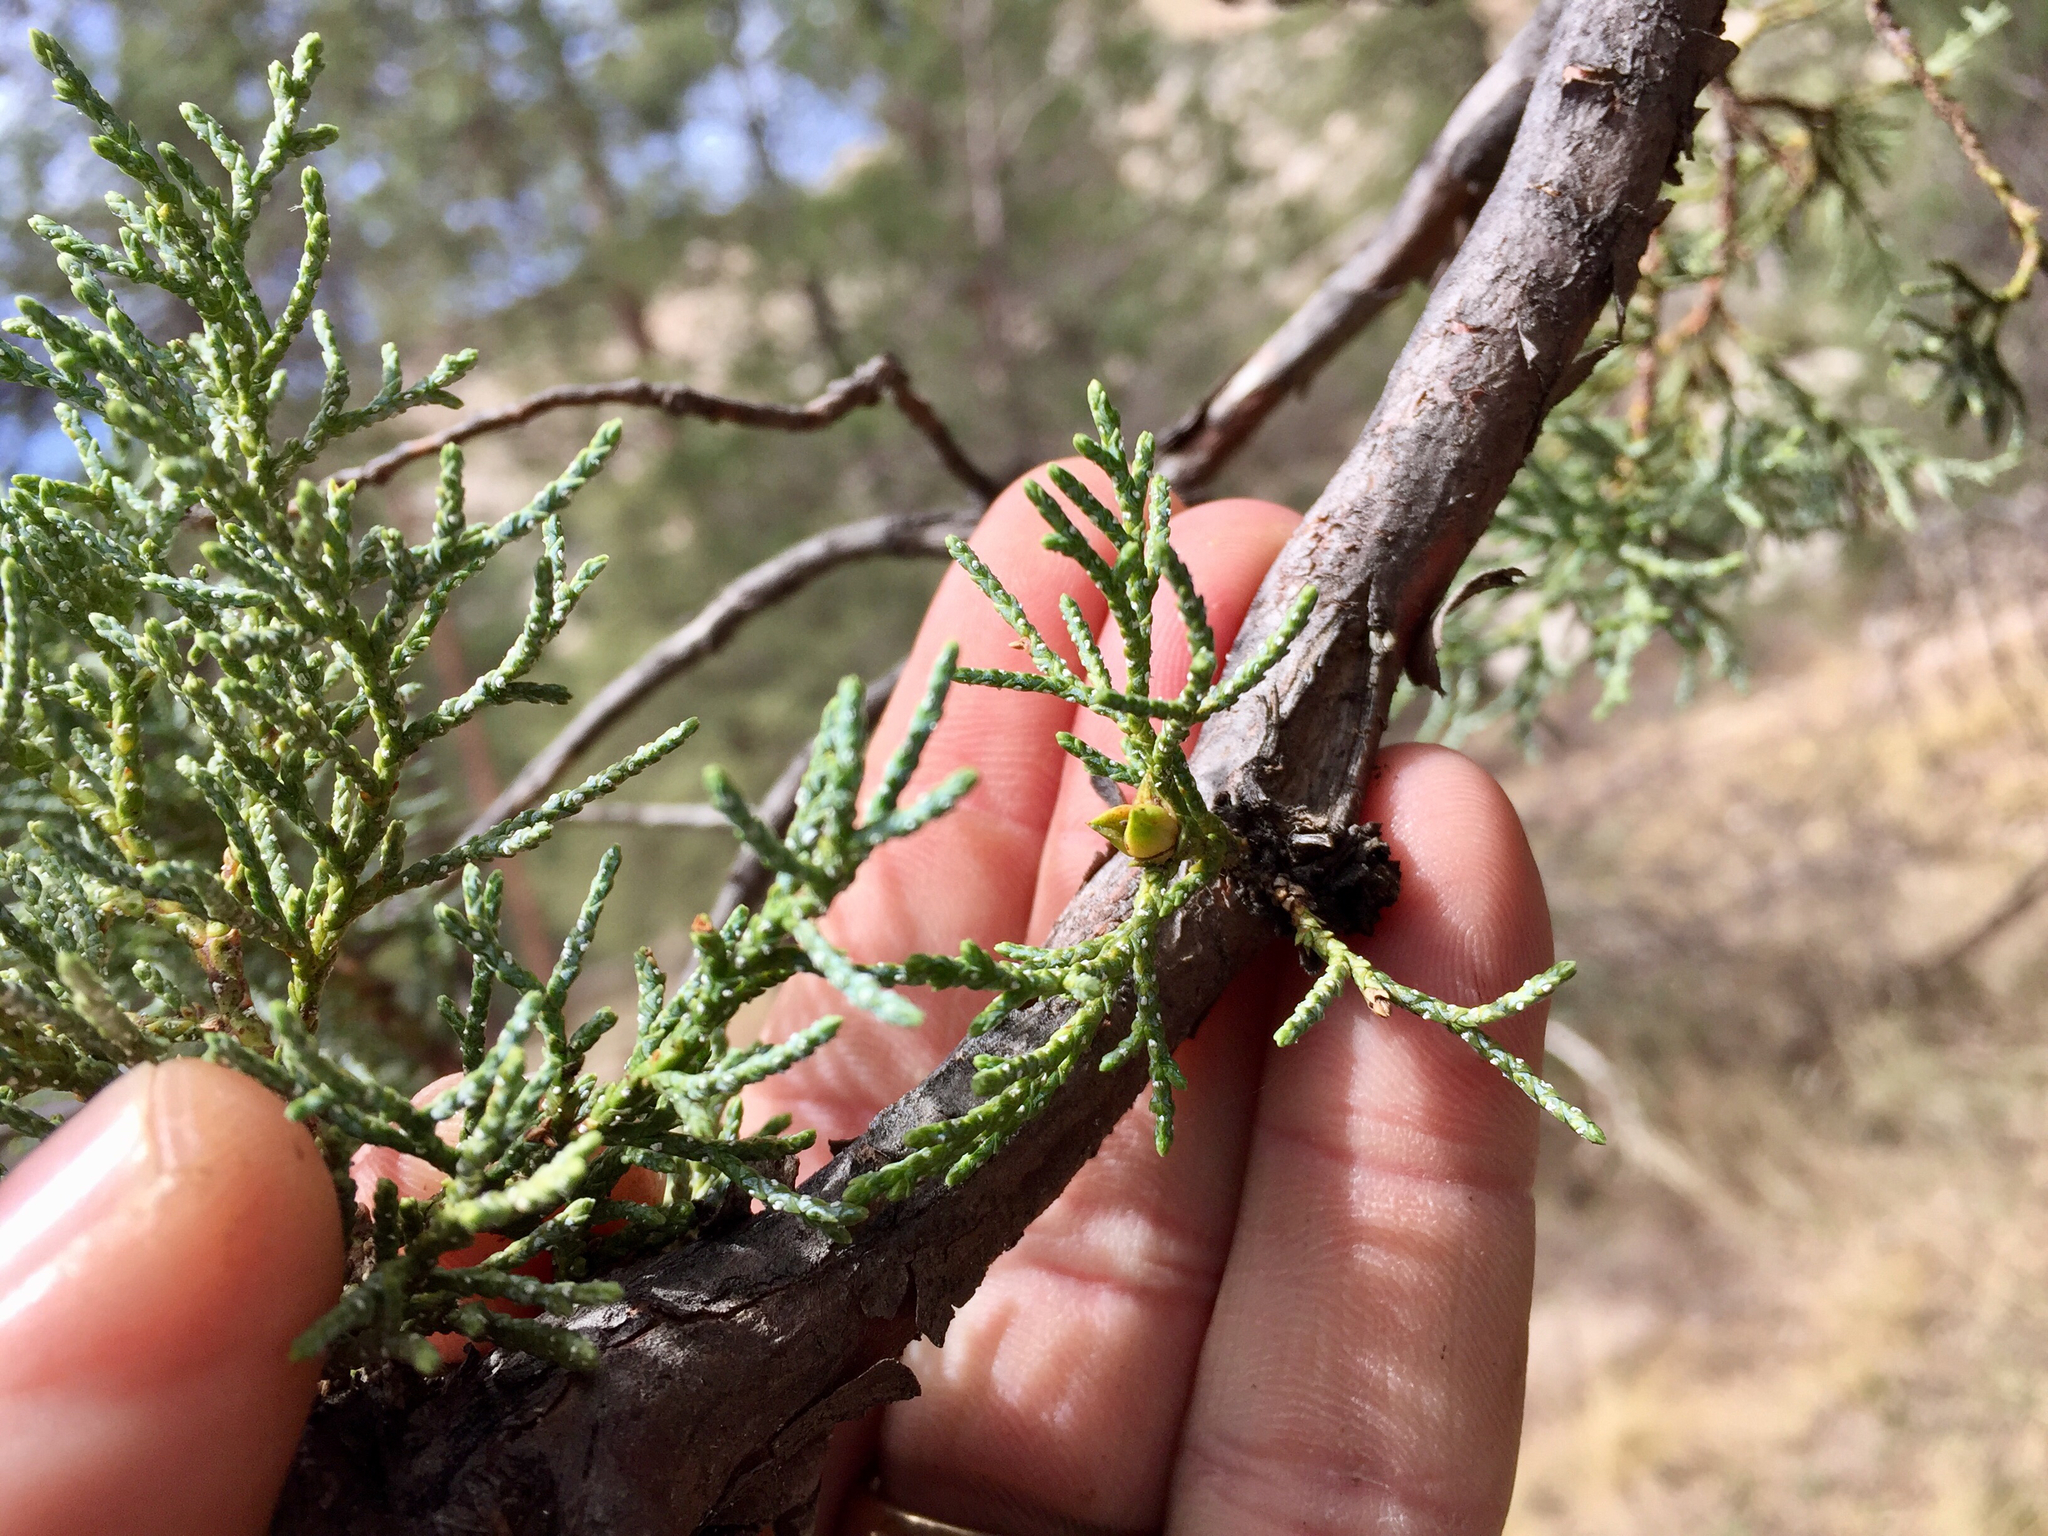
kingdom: Plantae
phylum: Tracheophyta
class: Pinopsida
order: Pinales
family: Cupressaceae
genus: Juniperus
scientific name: Juniperus deppeana
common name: Alligator juniper
